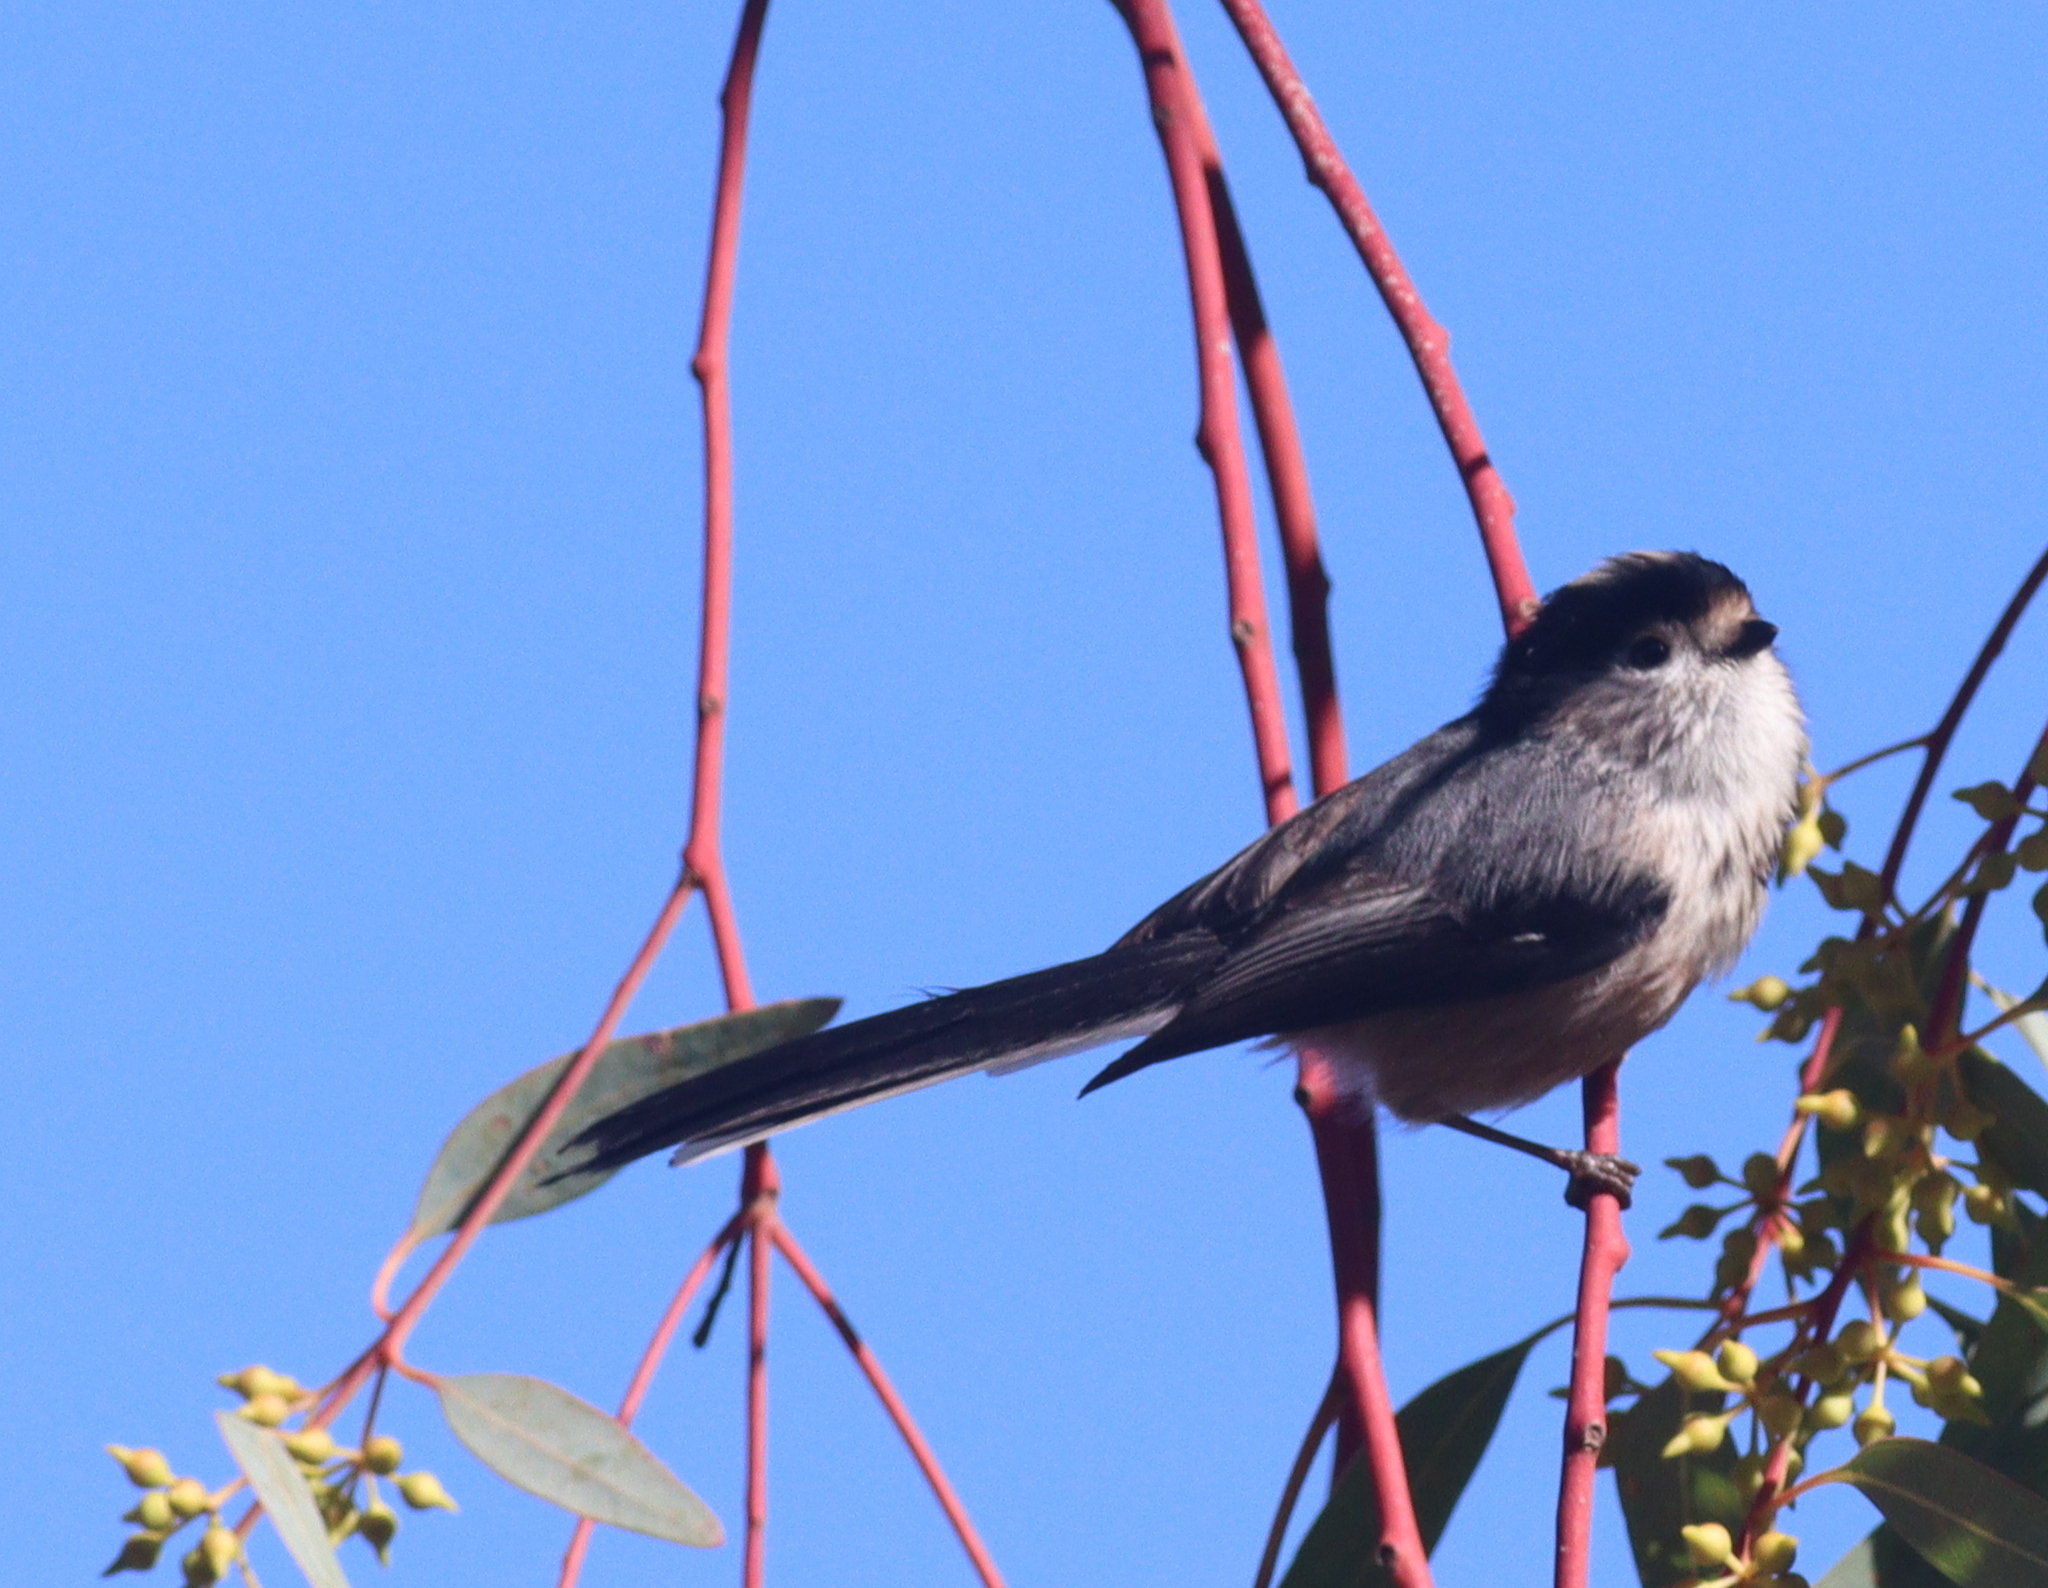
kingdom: Animalia
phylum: Chordata
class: Aves
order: Passeriformes
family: Aegithalidae
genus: Aegithalos
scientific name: Aegithalos caudatus
